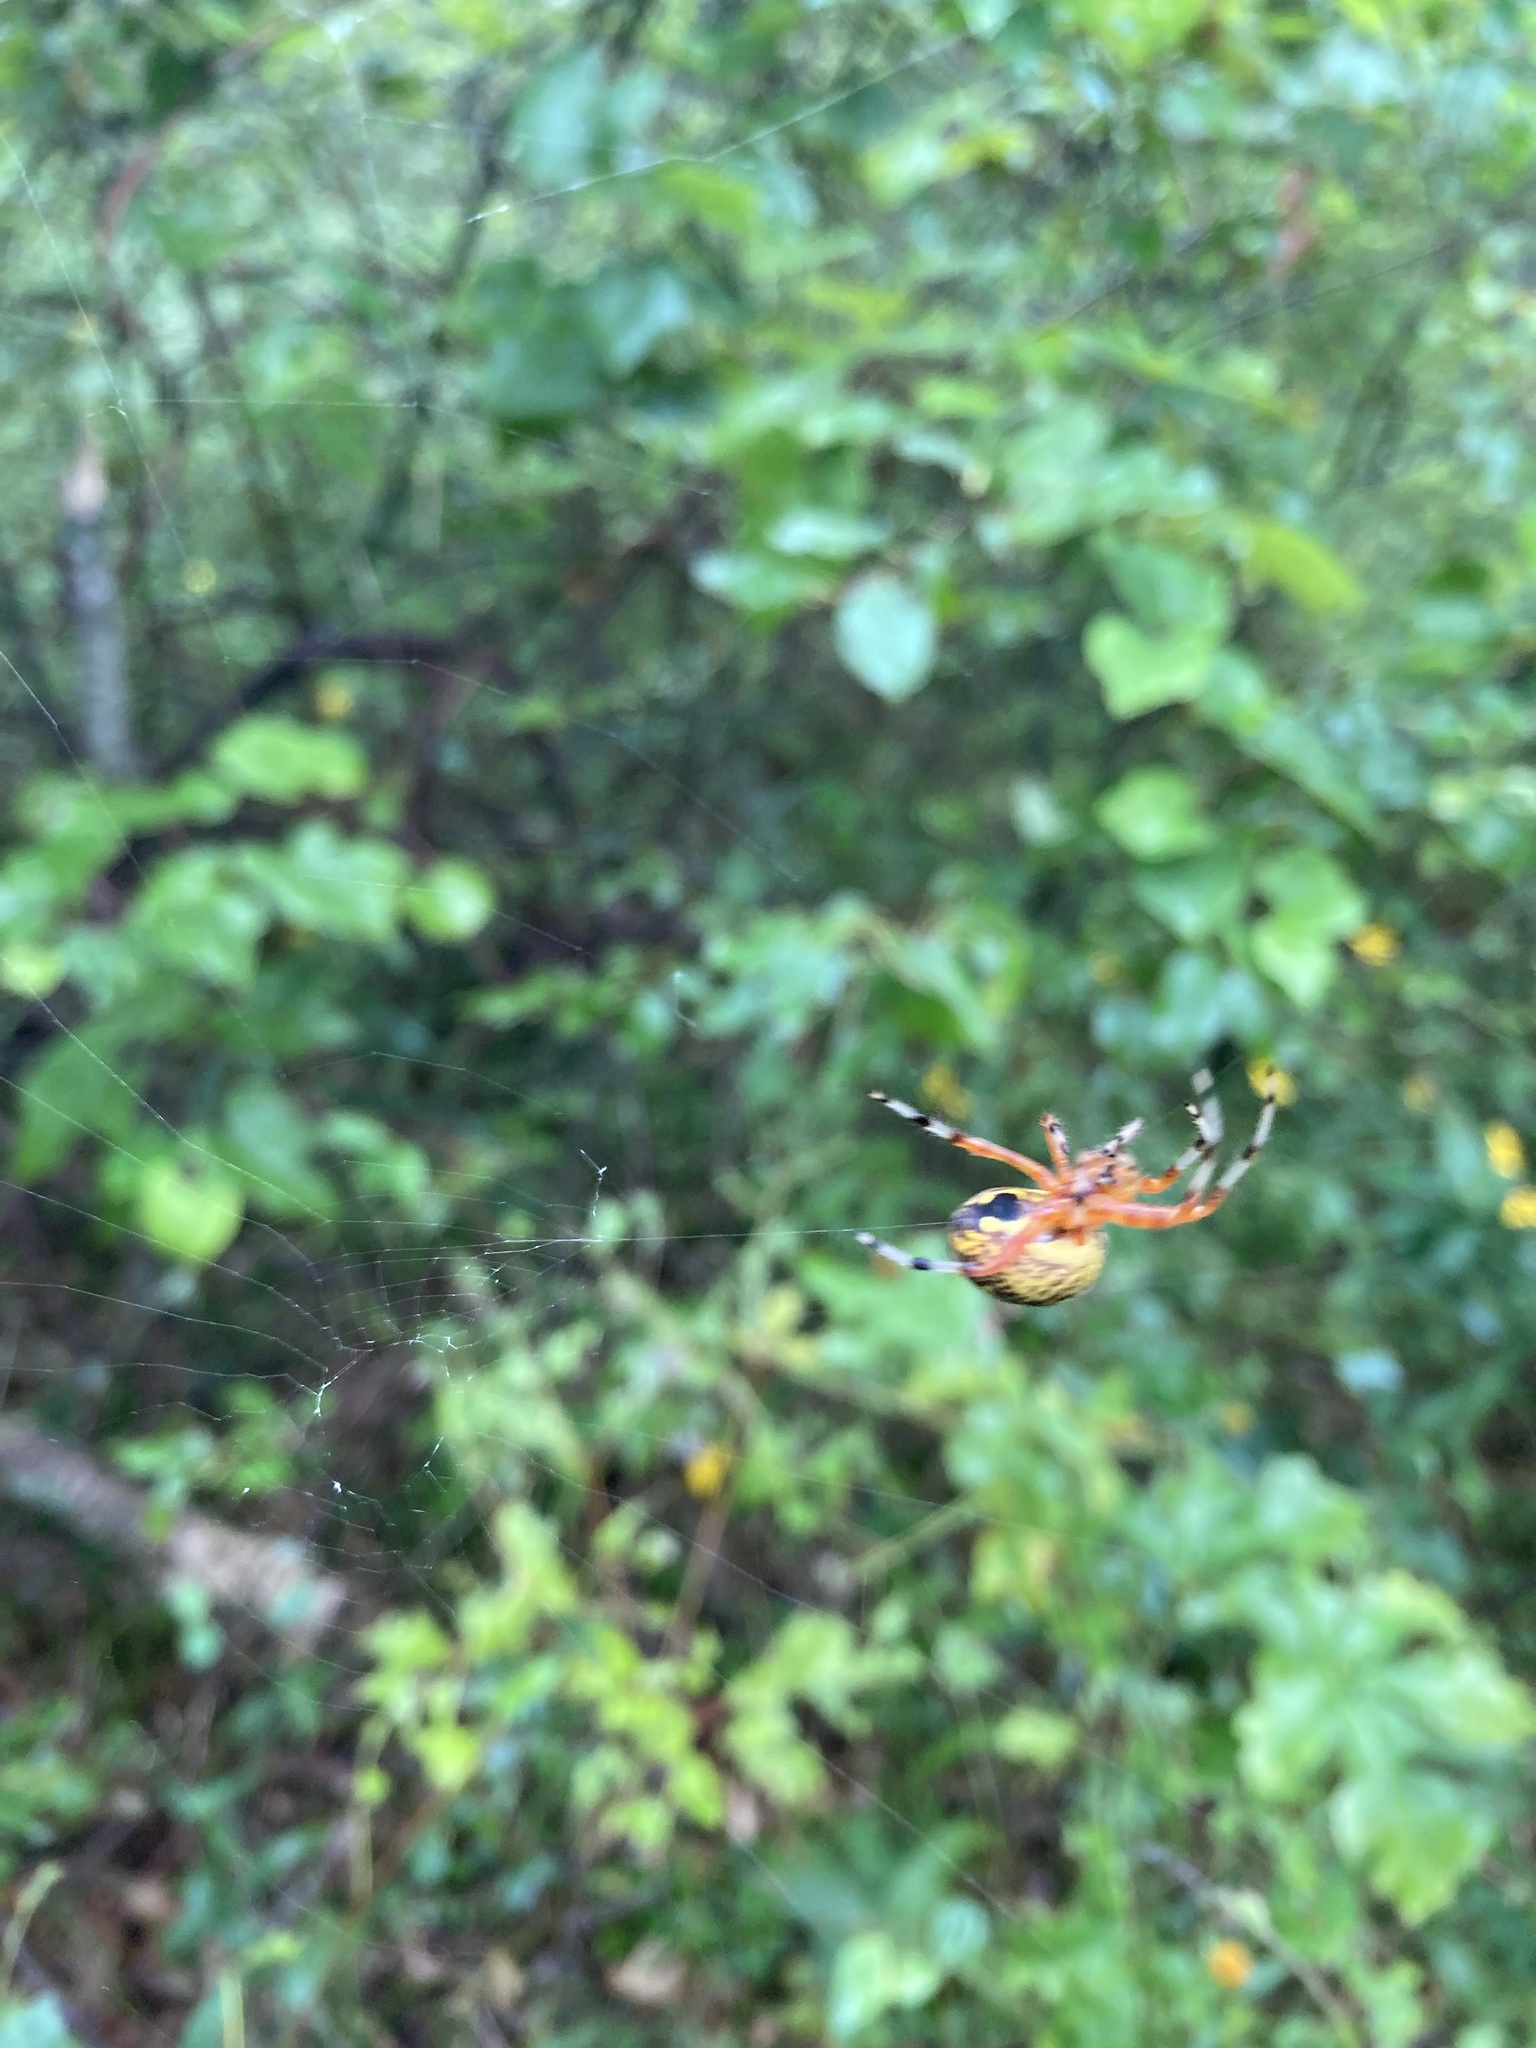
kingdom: Animalia
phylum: Arthropoda
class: Arachnida
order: Araneae
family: Araneidae
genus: Araneus
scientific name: Araneus marmoreus
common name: Marbled orbweaver
